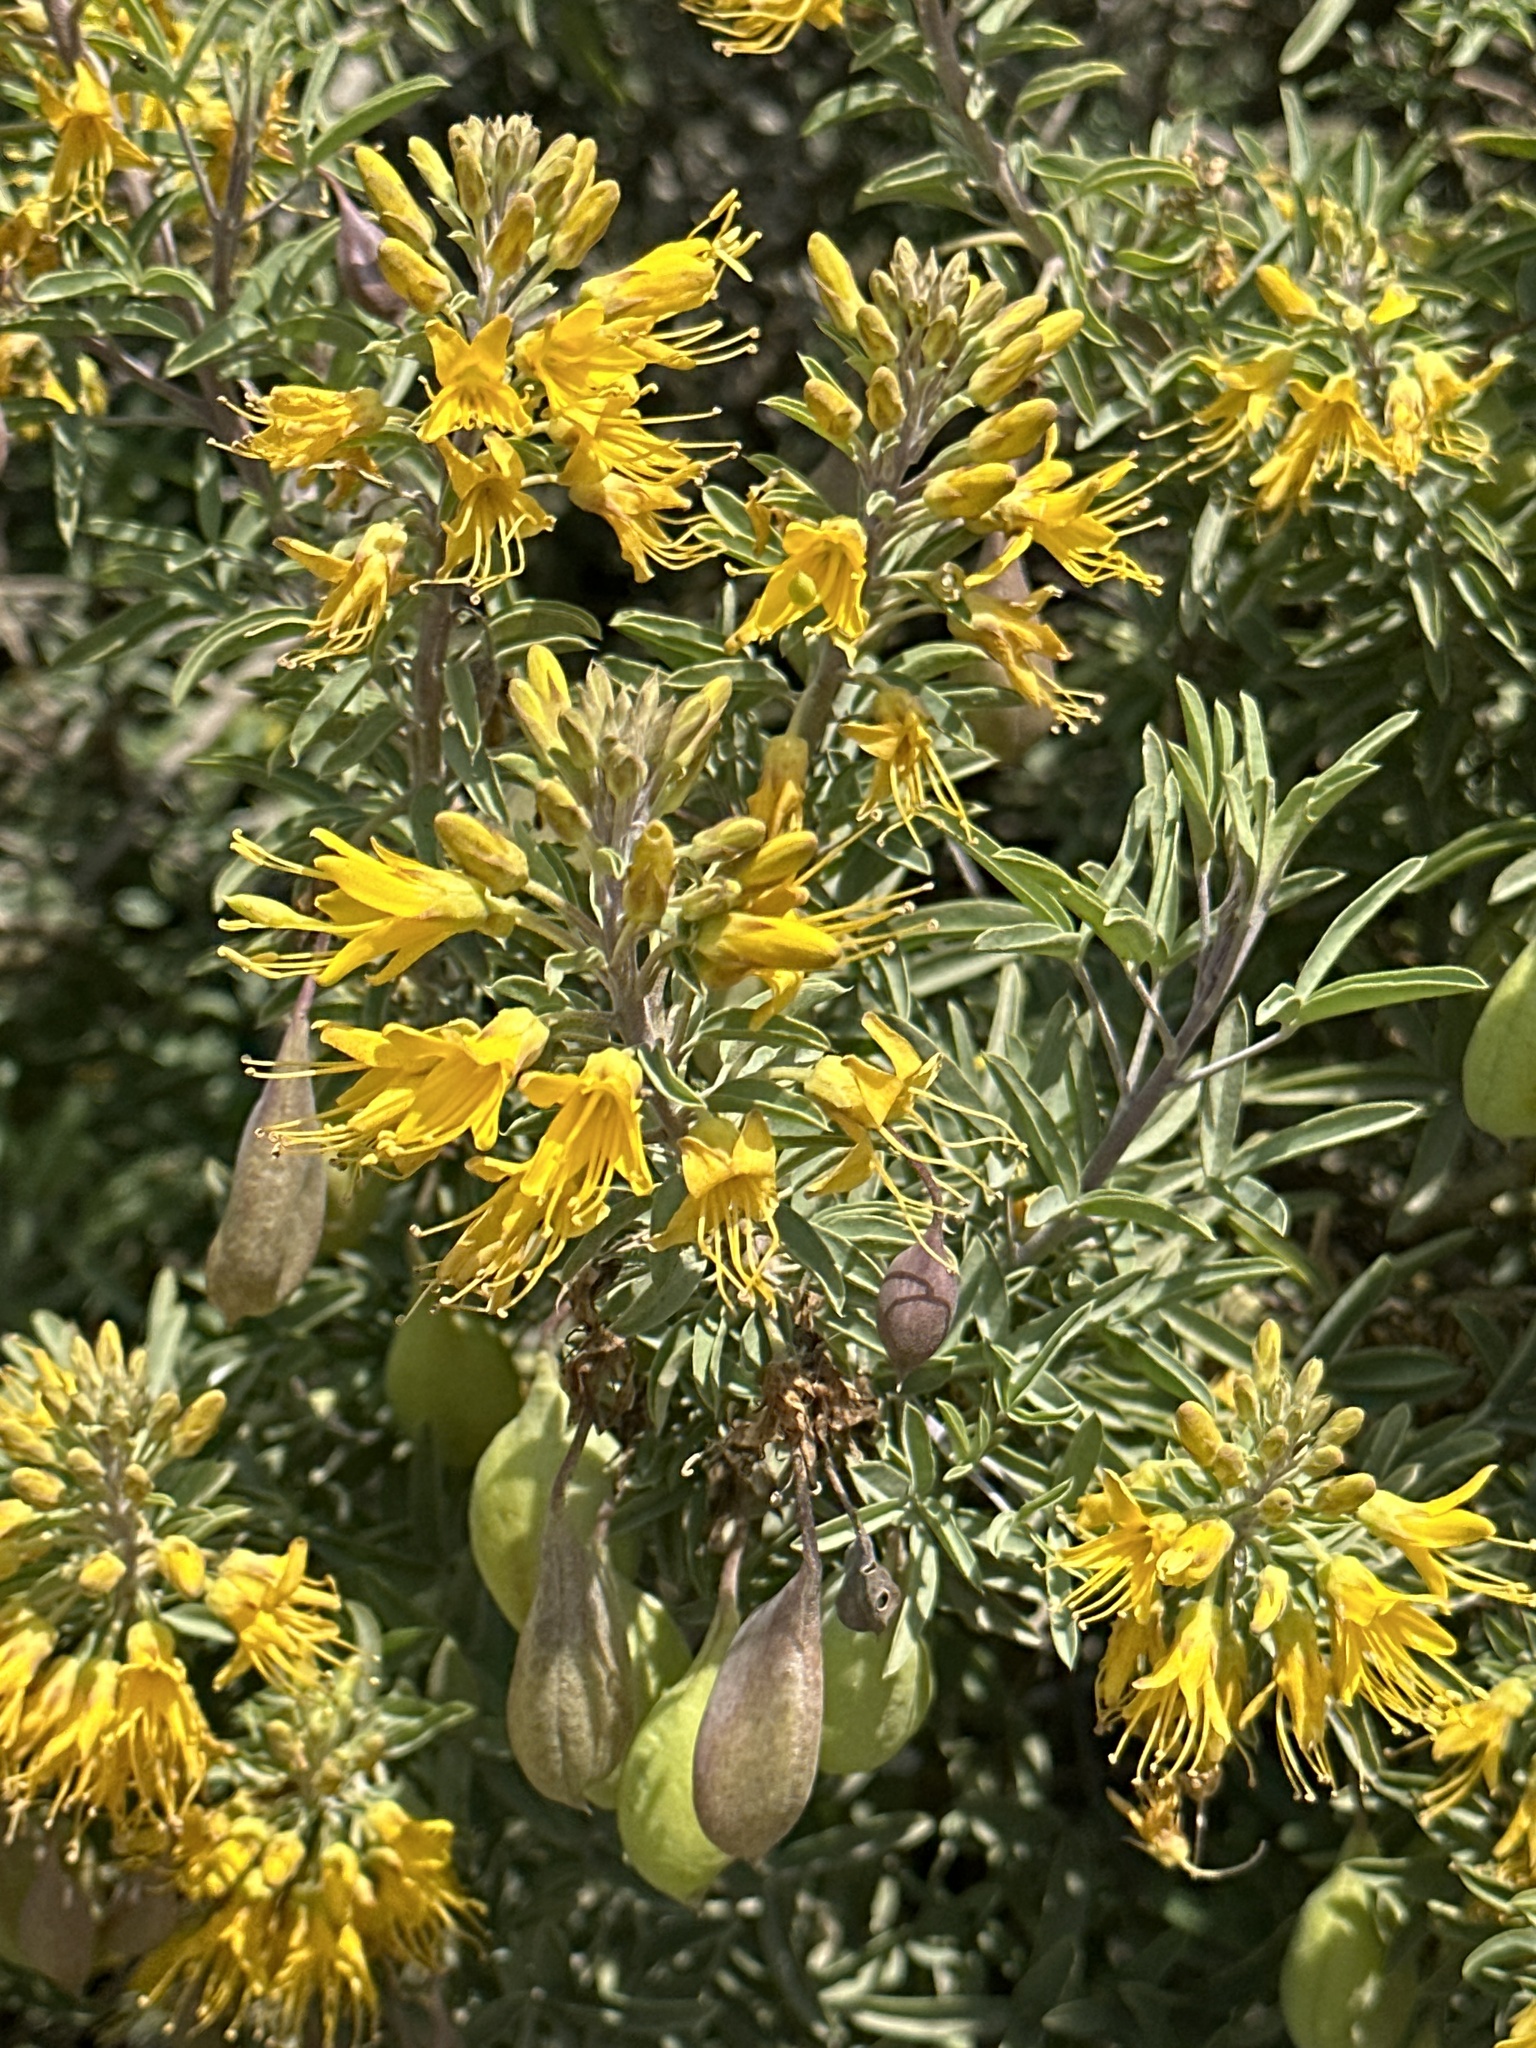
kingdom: Plantae
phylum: Tracheophyta
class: Magnoliopsida
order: Brassicales
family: Cleomaceae
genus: Cleomella
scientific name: Cleomella arborea
